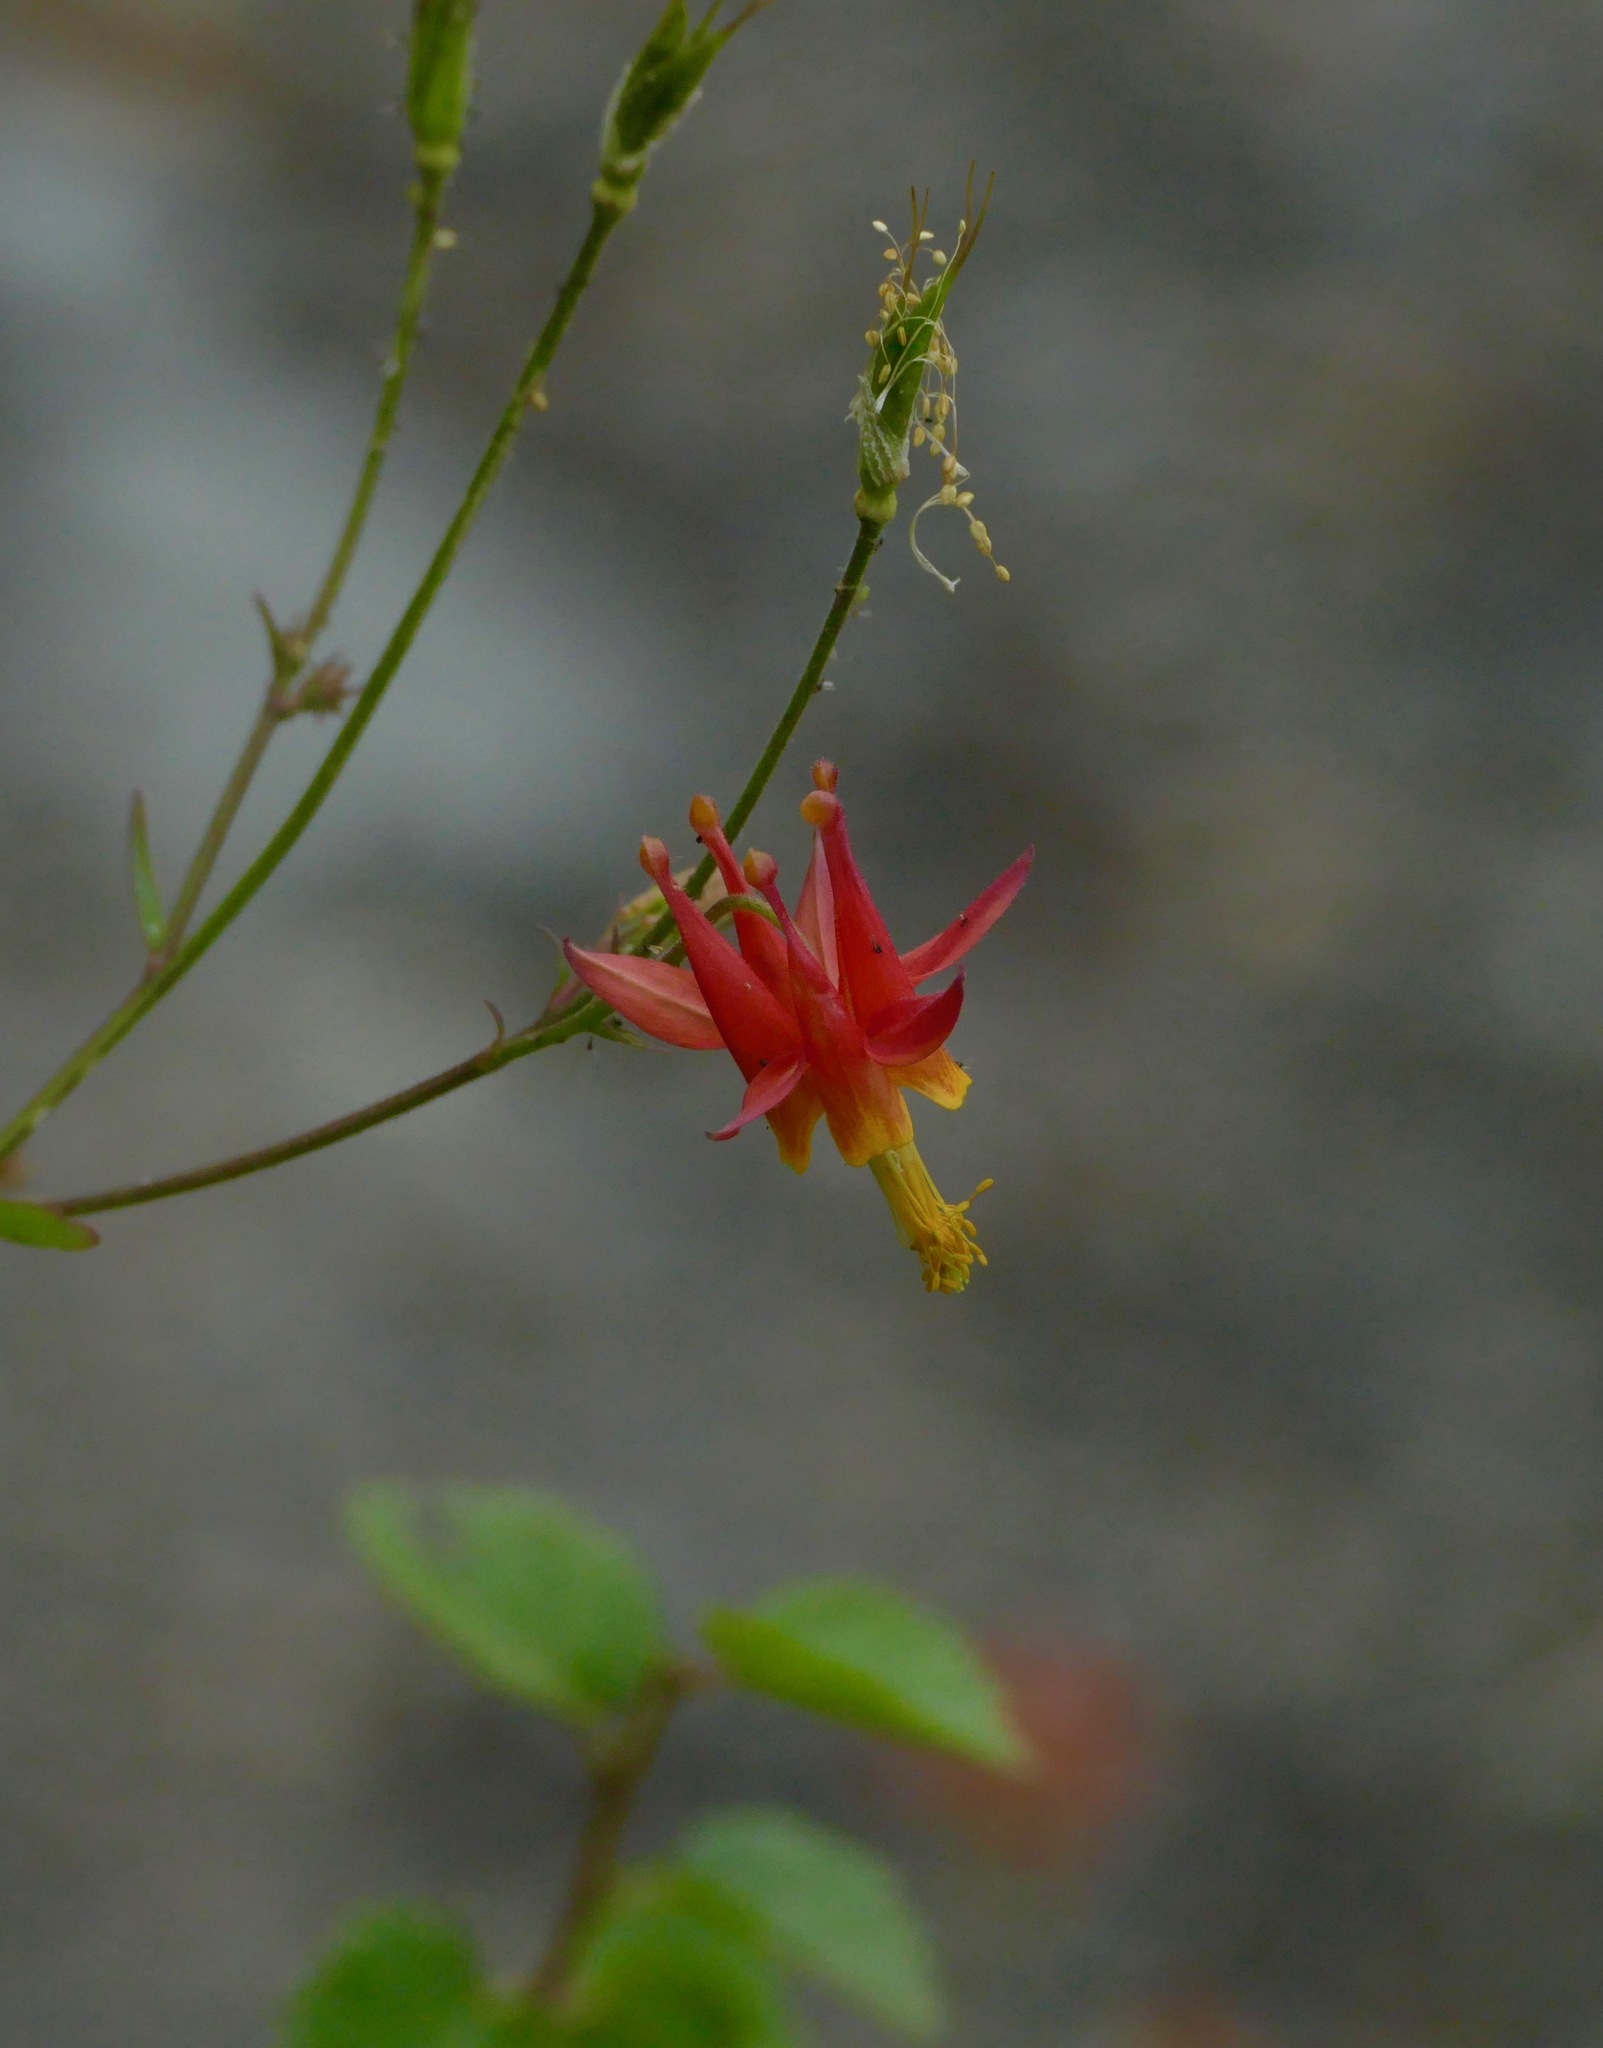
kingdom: Plantae
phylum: Tracheophyta
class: Magnoliopsida
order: Ranunculales
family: Ranunculaceae
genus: Aquilegia
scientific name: Aquilegia formosa
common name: Sitka columbine
